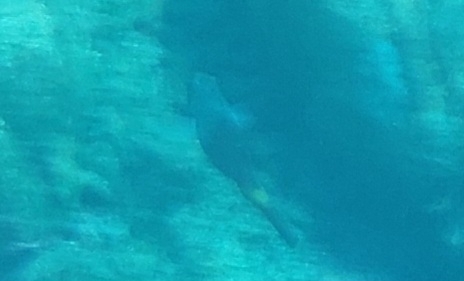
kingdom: Animalia
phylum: Chordata
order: Perciformes
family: Scaridae
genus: Sparisoma
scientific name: Sparisoma cretense
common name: Parrotfish
